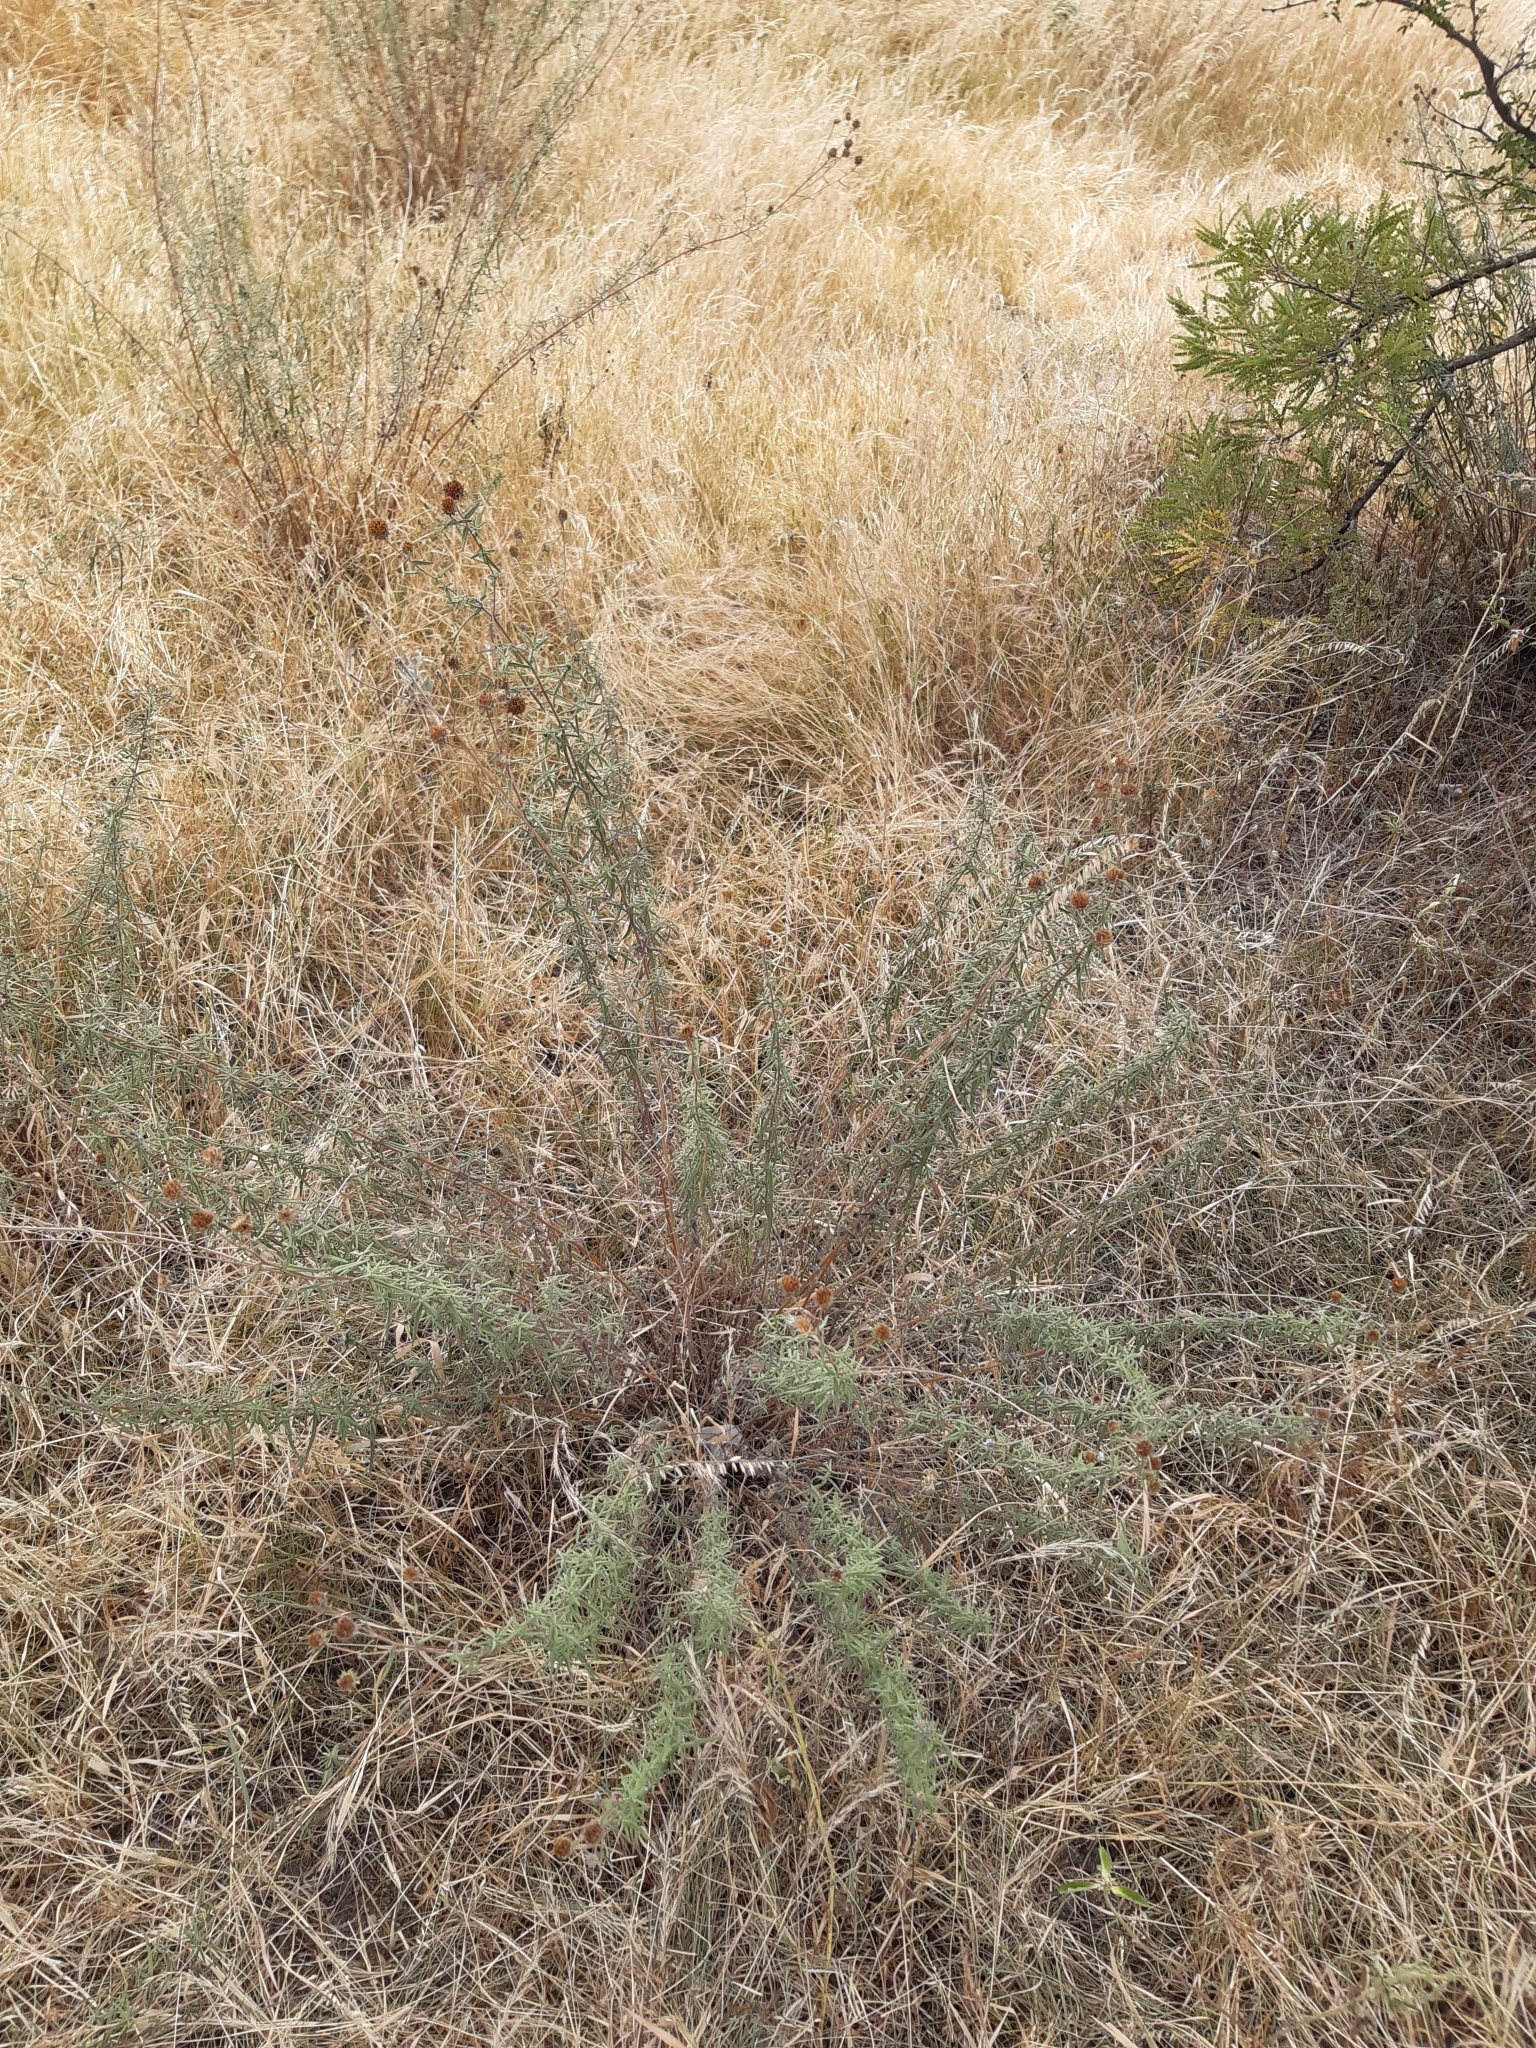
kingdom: Plantae
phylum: Tracheophyta
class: Magnoliopsida
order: Asterales
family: Asteraceae
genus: Aldama
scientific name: Aldama linearis
